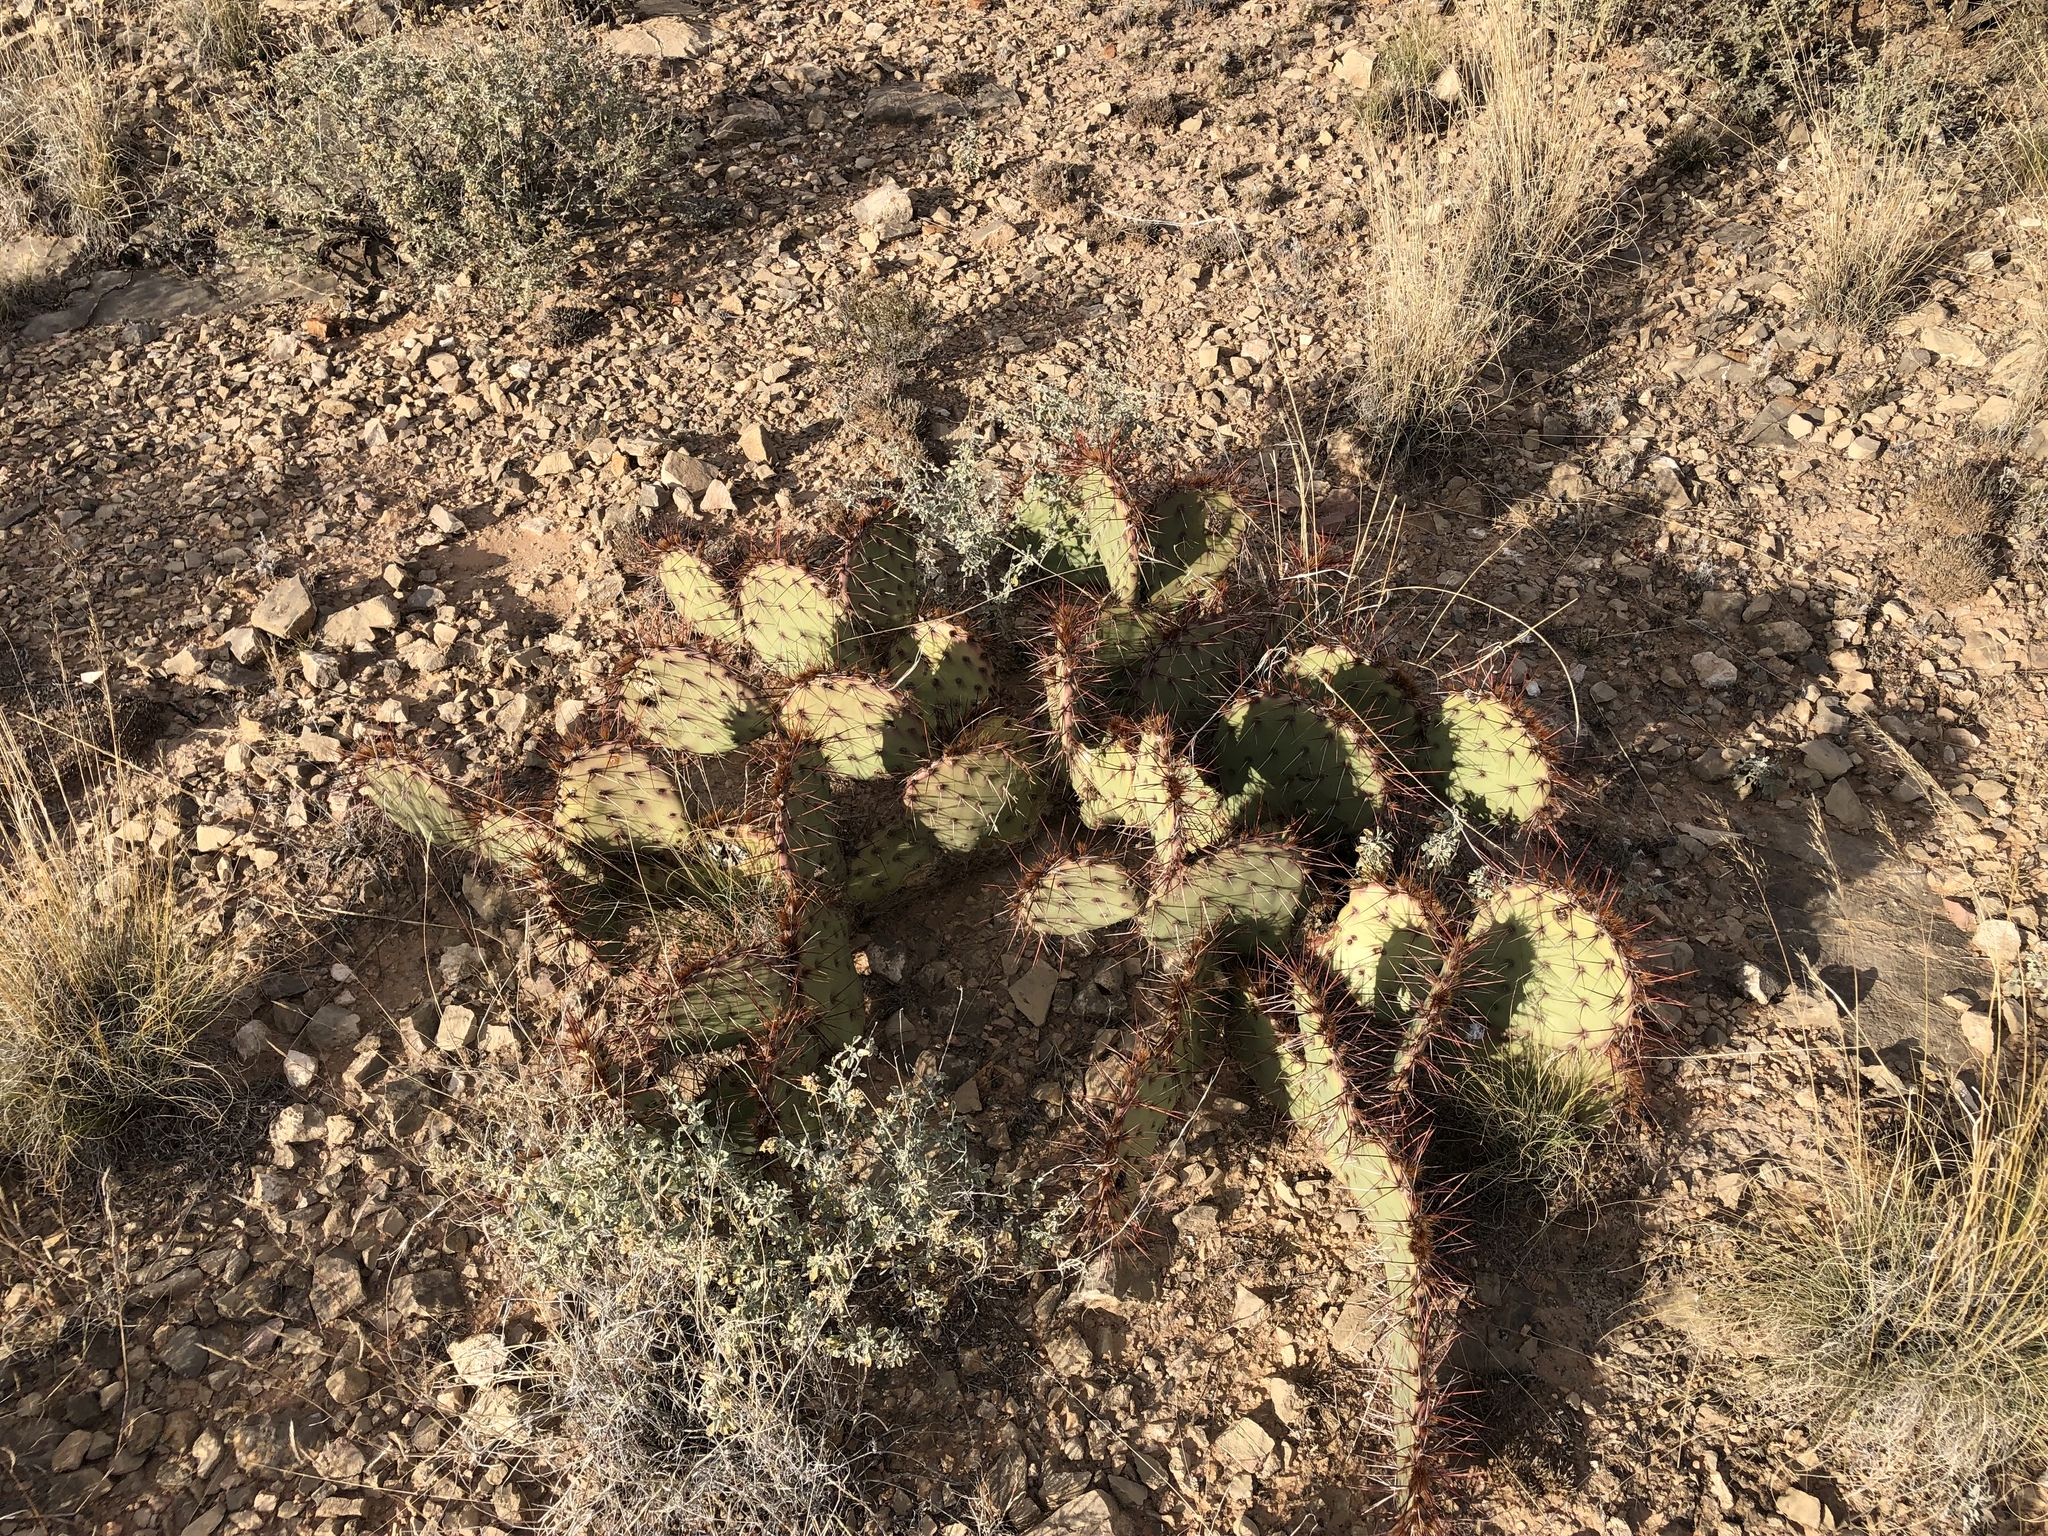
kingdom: Plantae
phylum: Tracheophyta
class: Magnoliopsida
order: Caryophyllales
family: Cactaceae
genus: Opuntia
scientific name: Opuntia phaeacantha
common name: New mexico prickly-pear
